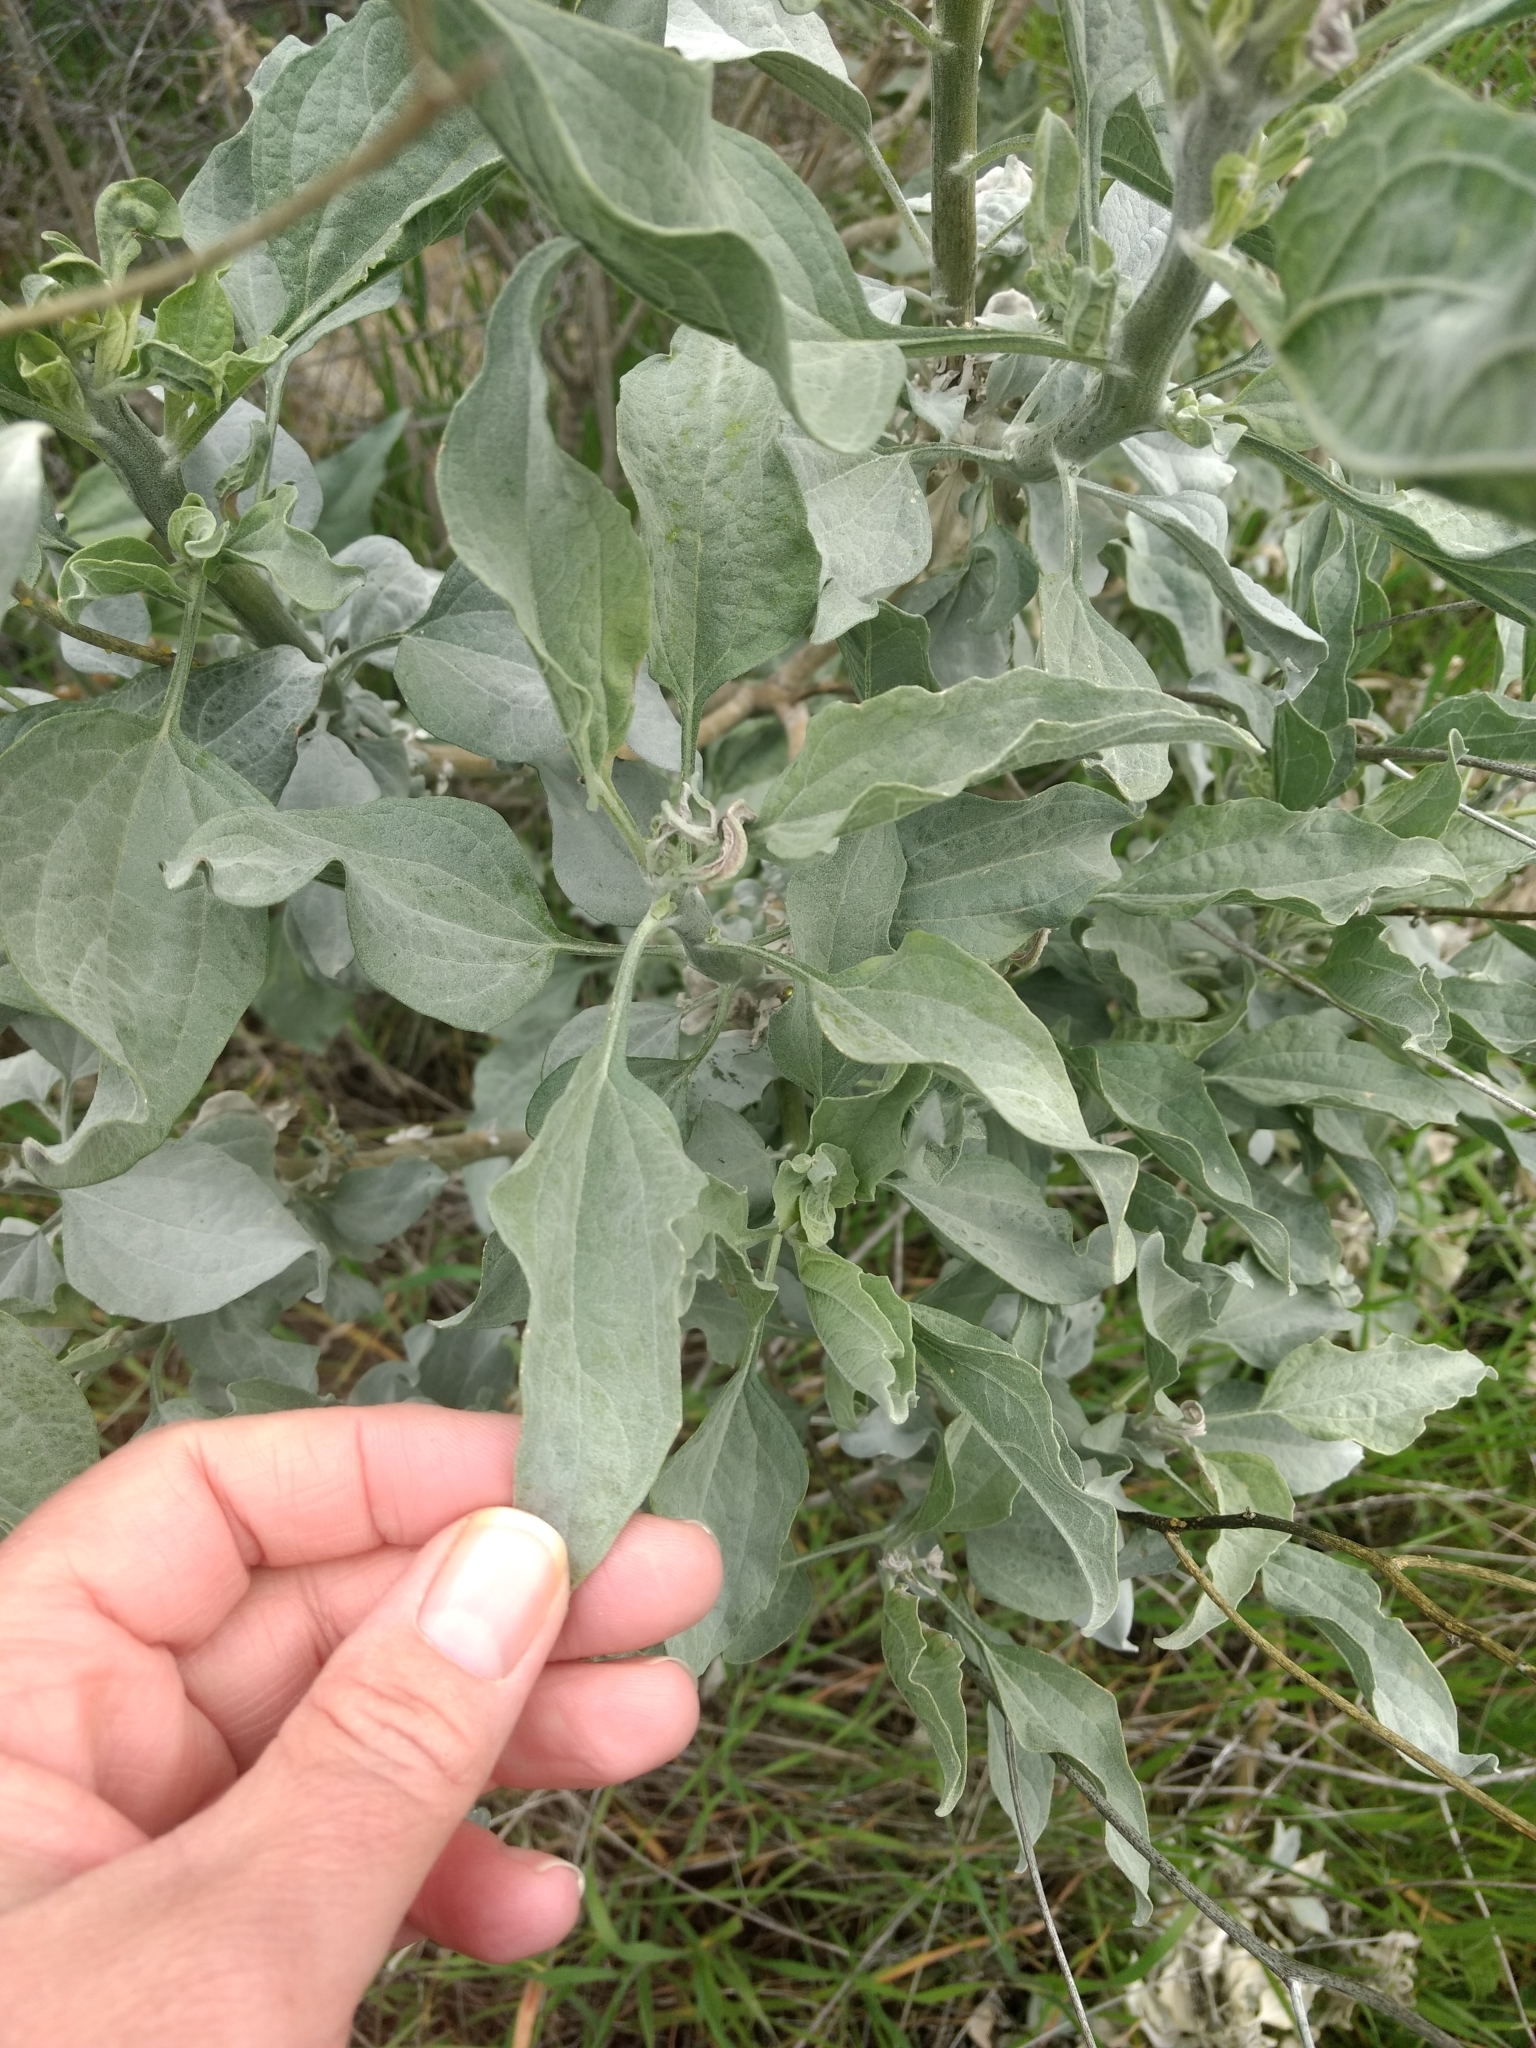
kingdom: Plantae
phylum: Tracheophyta
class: Magnoliopsida
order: Asterales
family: Asteraceae
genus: Encelia
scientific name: Encelia farinosa
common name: Brittlebush
